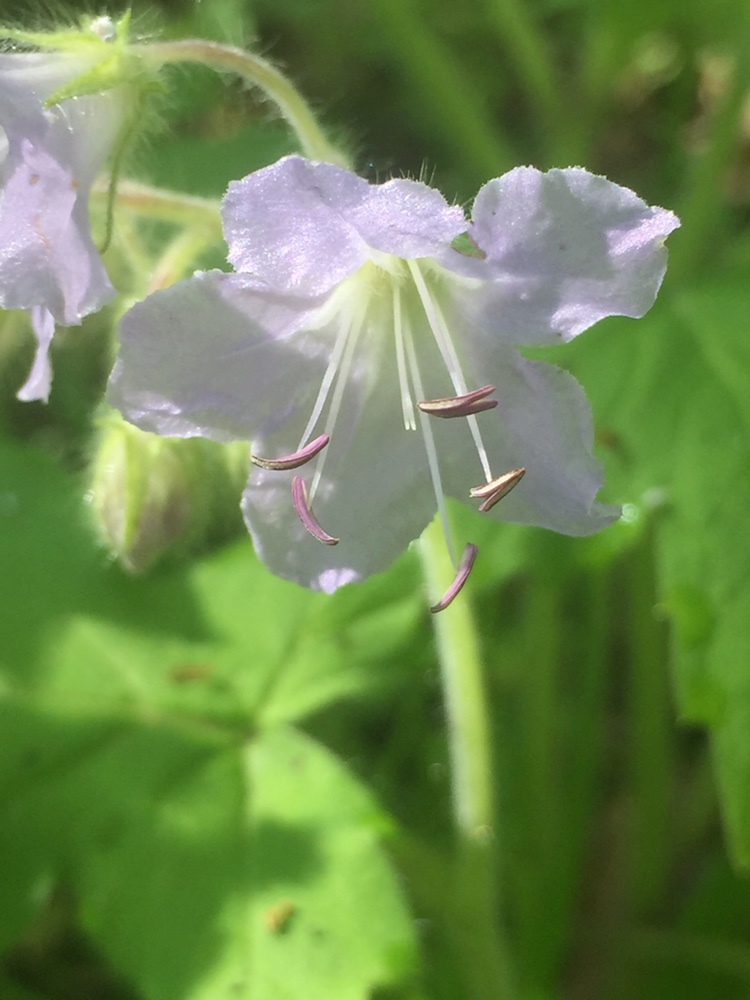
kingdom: Plantae
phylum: Tracheophyta
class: Magnoliopsida
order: Boraginales
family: Hydrophyllaceae
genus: Hydrophyllum
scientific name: Hydrophyllum appendiculatum
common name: Appendaged waterleaf
